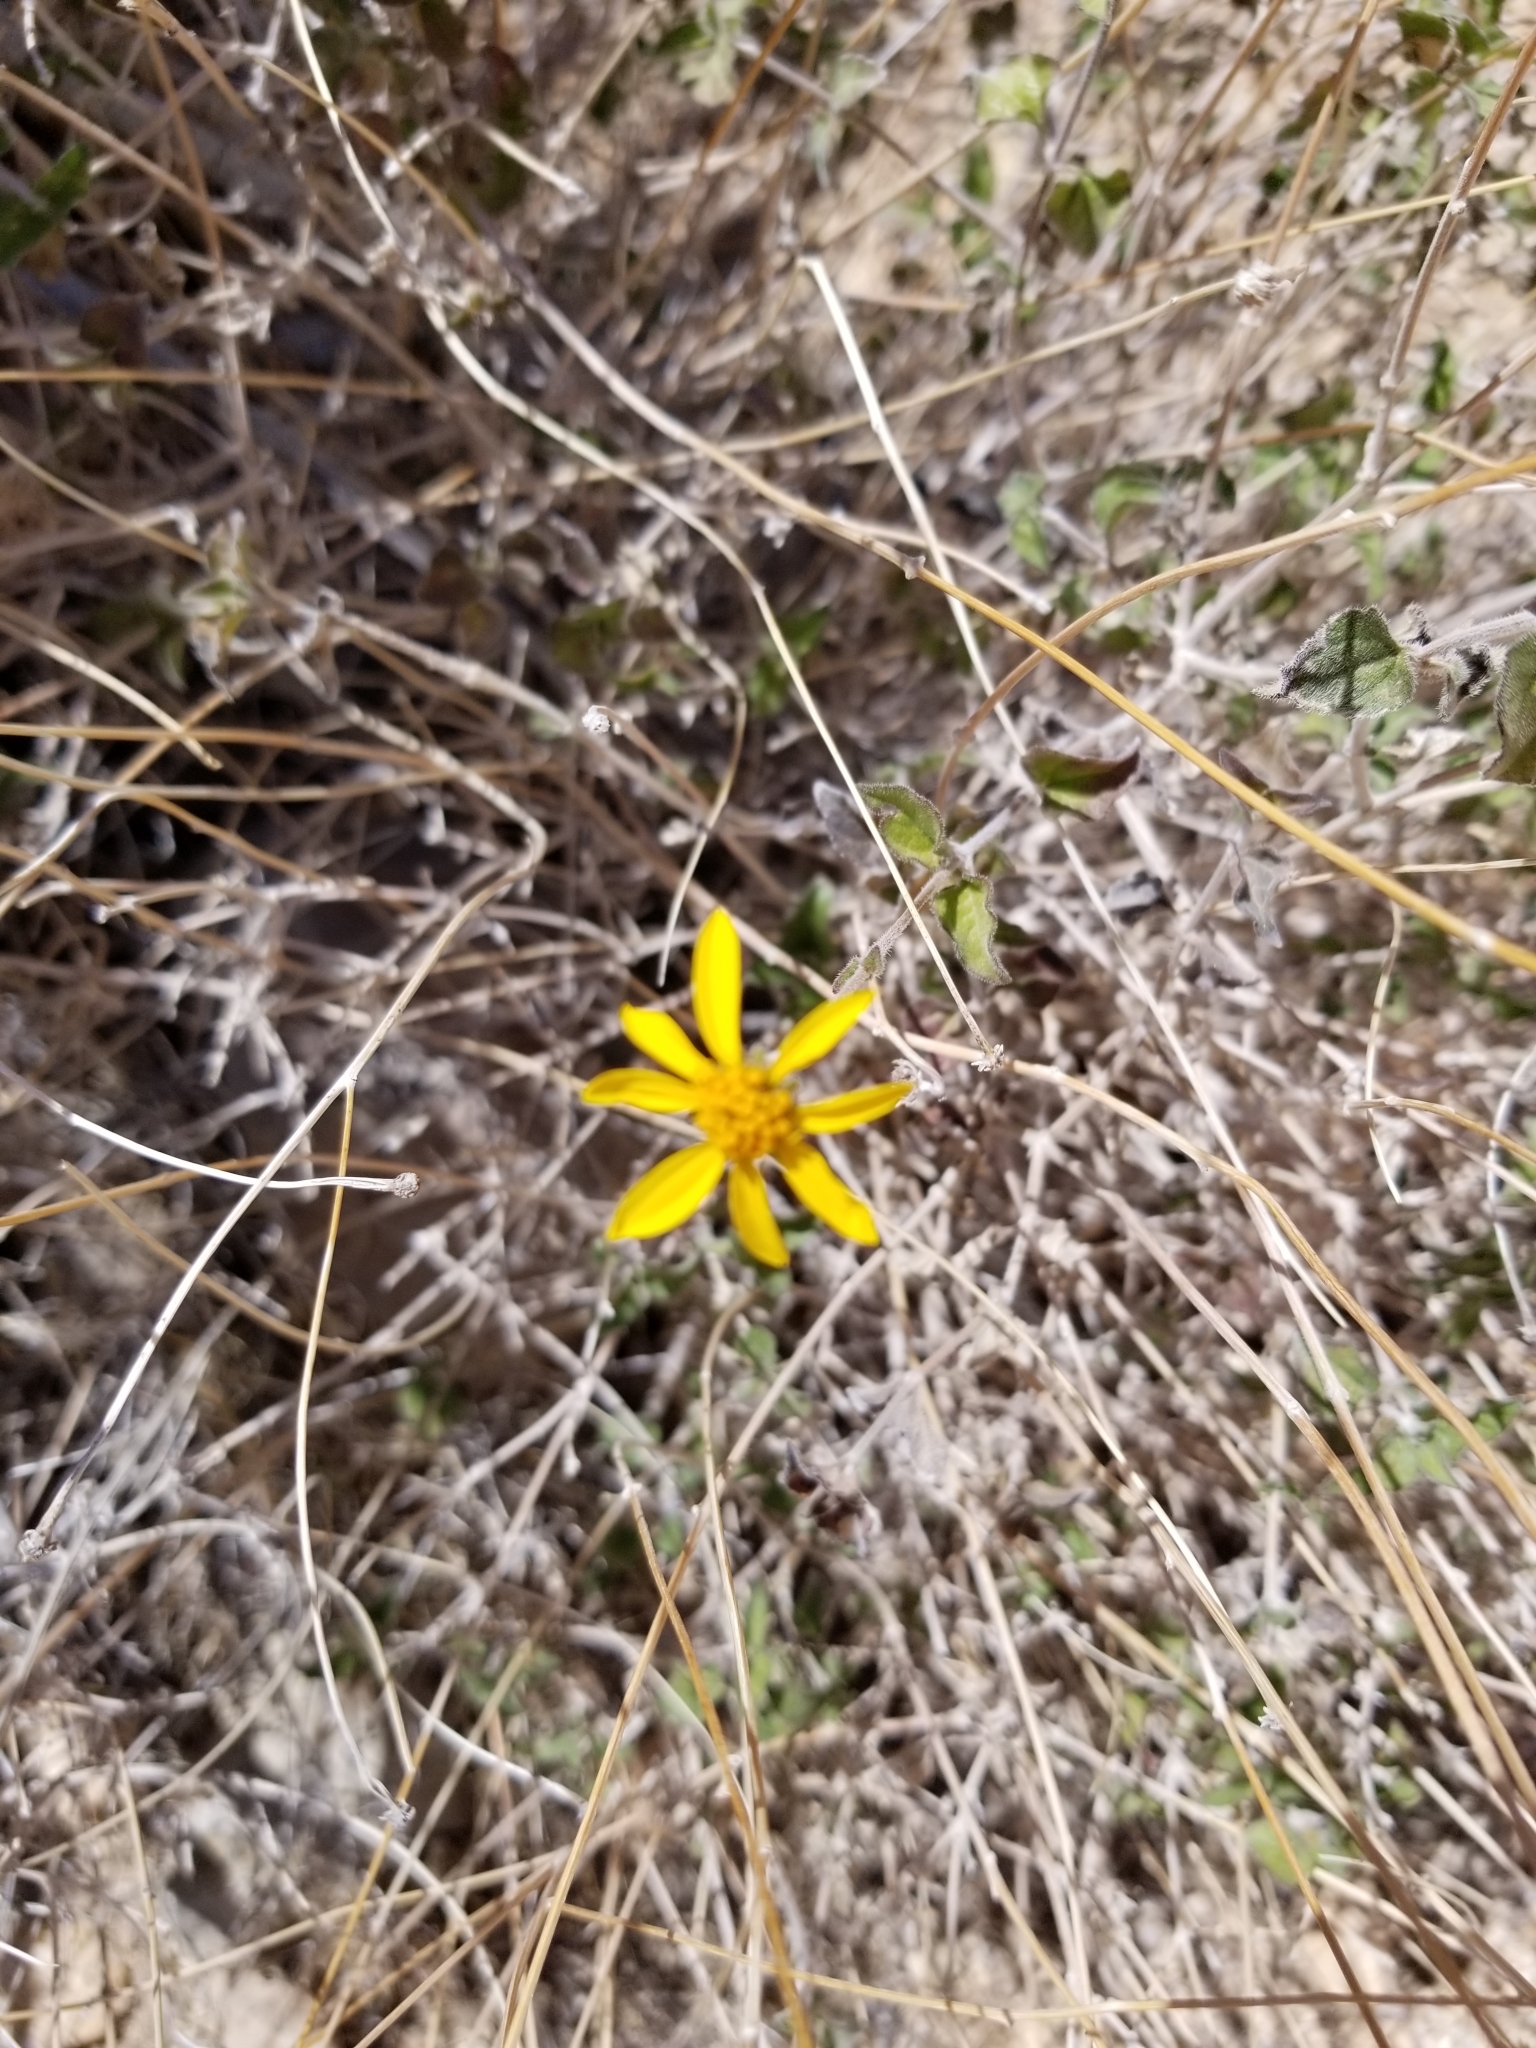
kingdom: Plantae
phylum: Tracheophyta
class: Magnoliopsida
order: Asterales
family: Asteraceae
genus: Bahiopsis
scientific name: Bahiopsis parishii
